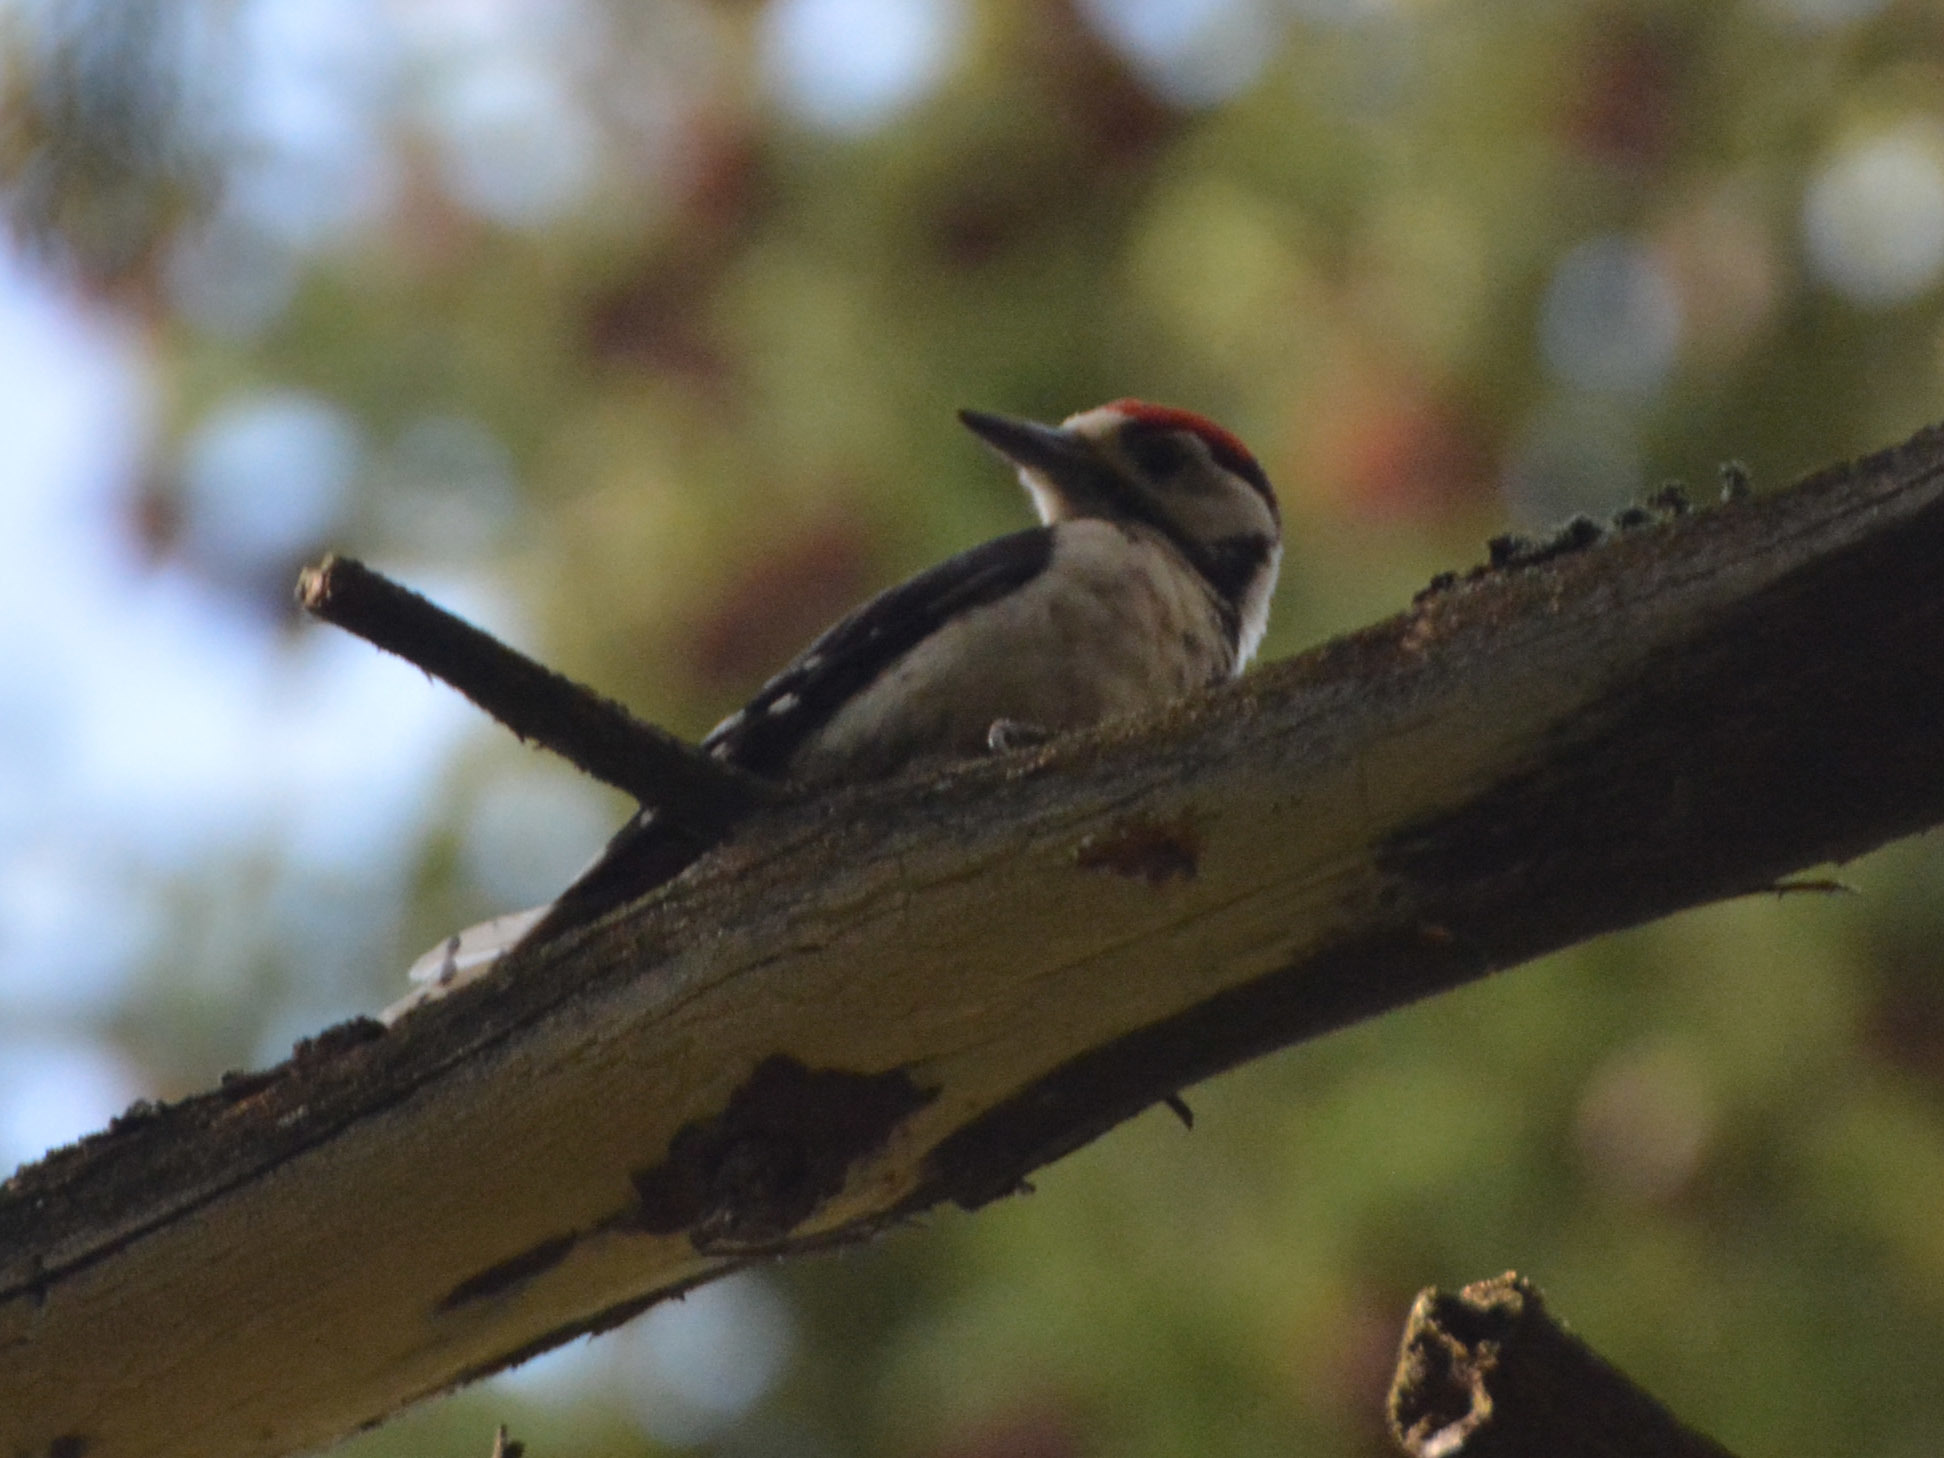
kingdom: Animalia
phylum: Chordata
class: Aves
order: Piciformes
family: Picidae
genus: Dendrocopos
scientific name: Dendrocopos major
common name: Great spotted woodpecker
